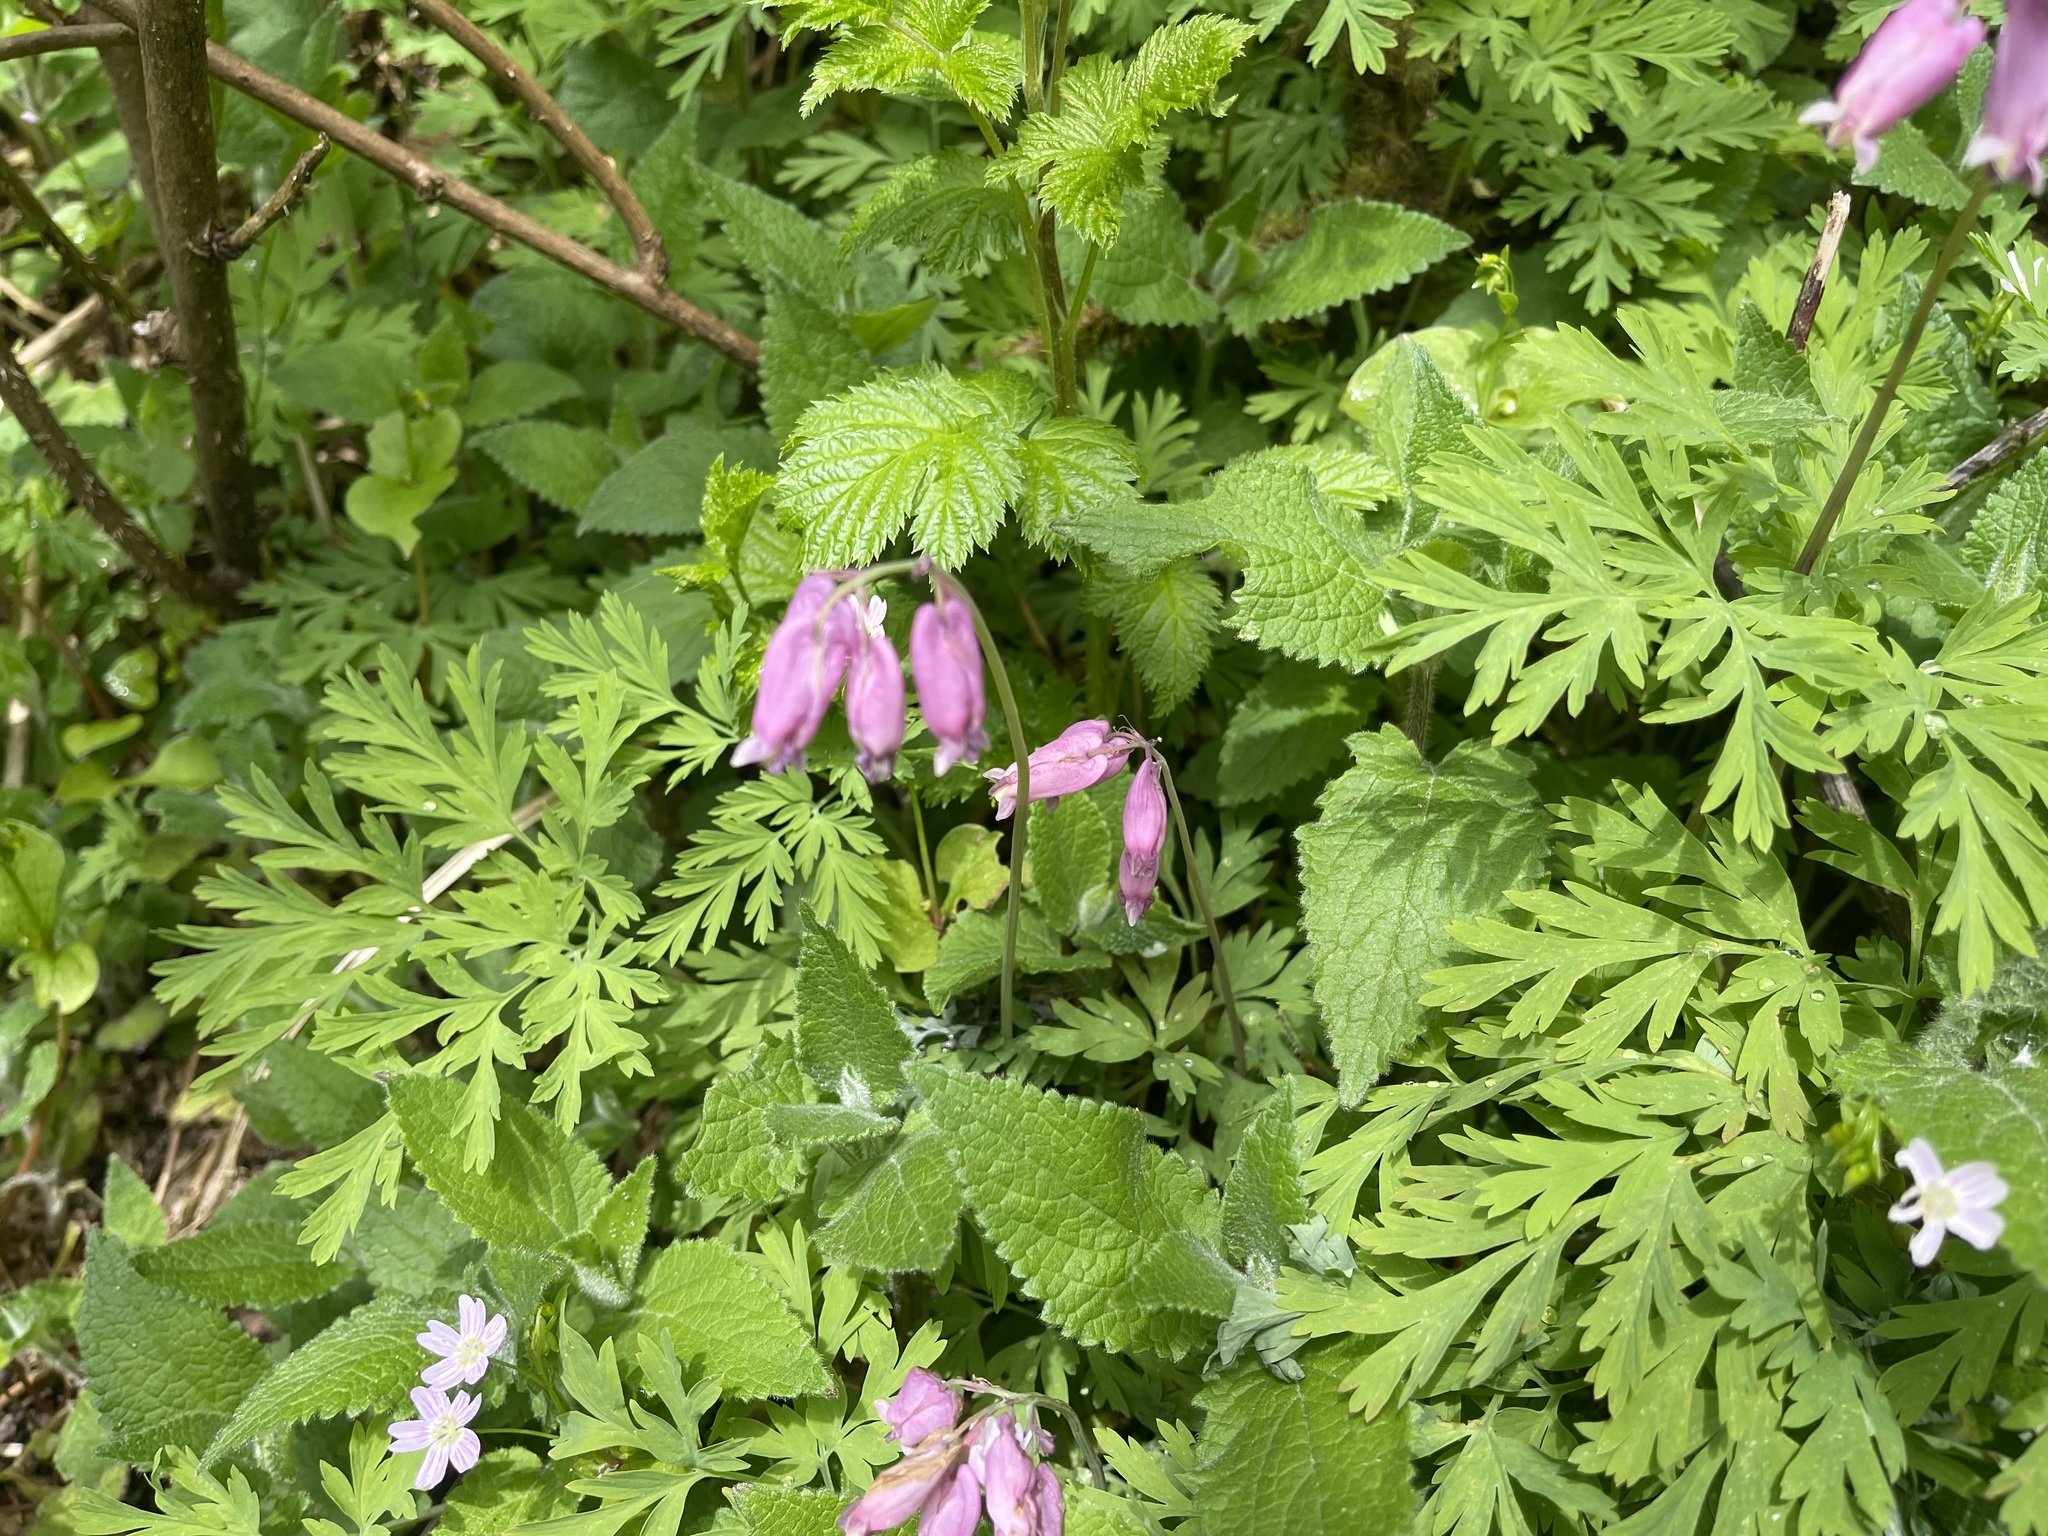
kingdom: Plantae
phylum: Tracheophyta
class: Magnoliopsida
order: Ranunculales
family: Papaveraceae
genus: Dicentra
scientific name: Dicentra formosa
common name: Bleeding-heart
